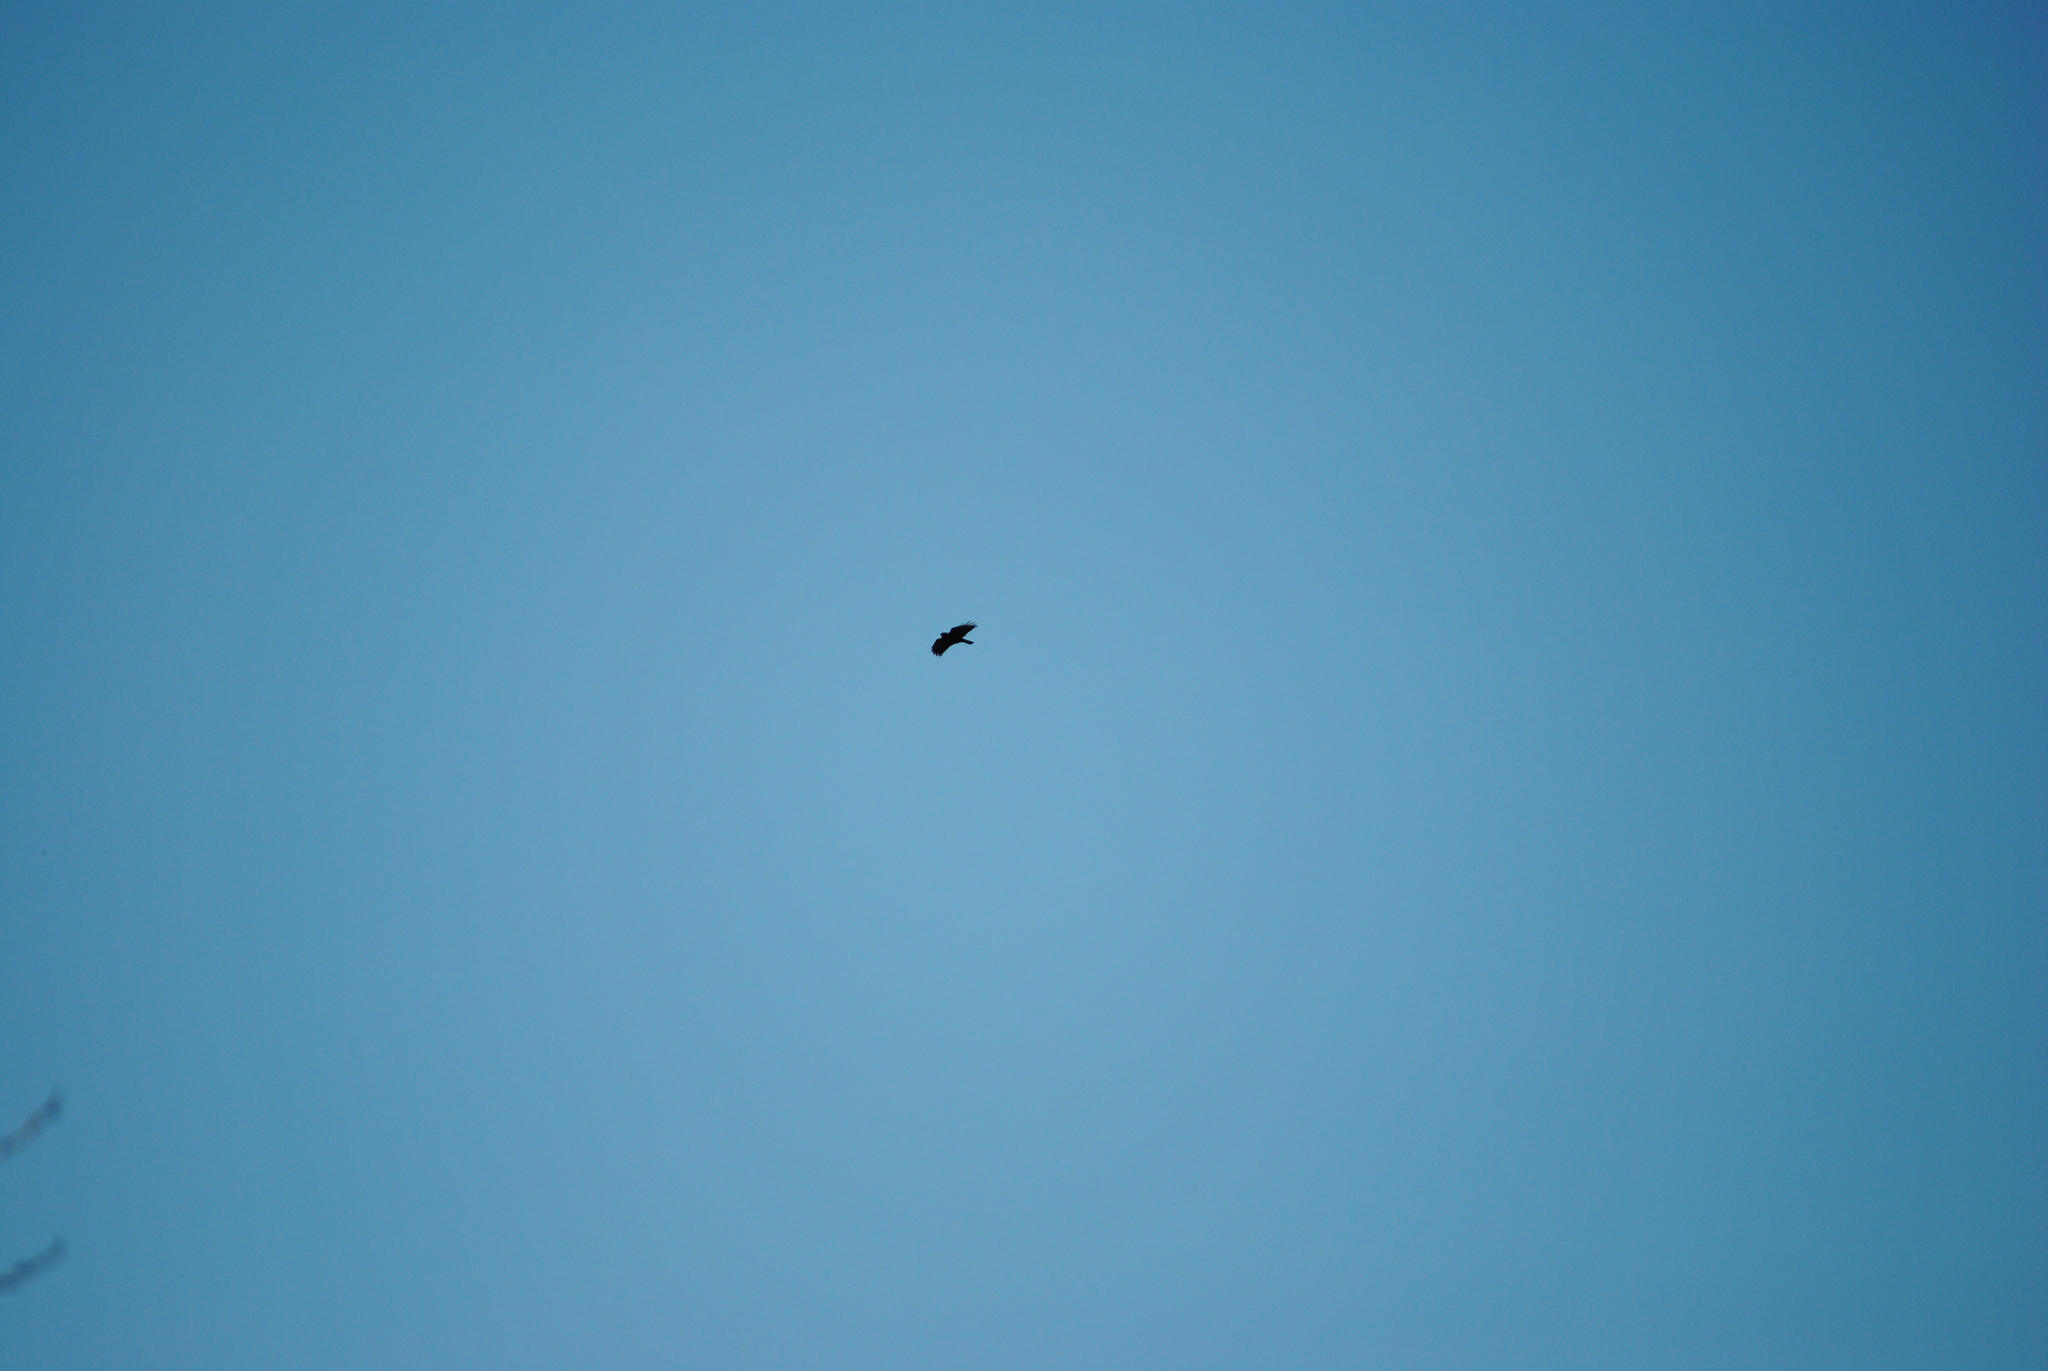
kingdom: Animalia
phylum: Chordata
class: Aves
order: Passeriformes
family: Corvidae
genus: Corvus
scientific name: Corvus brachyrhynchos
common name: American crow
